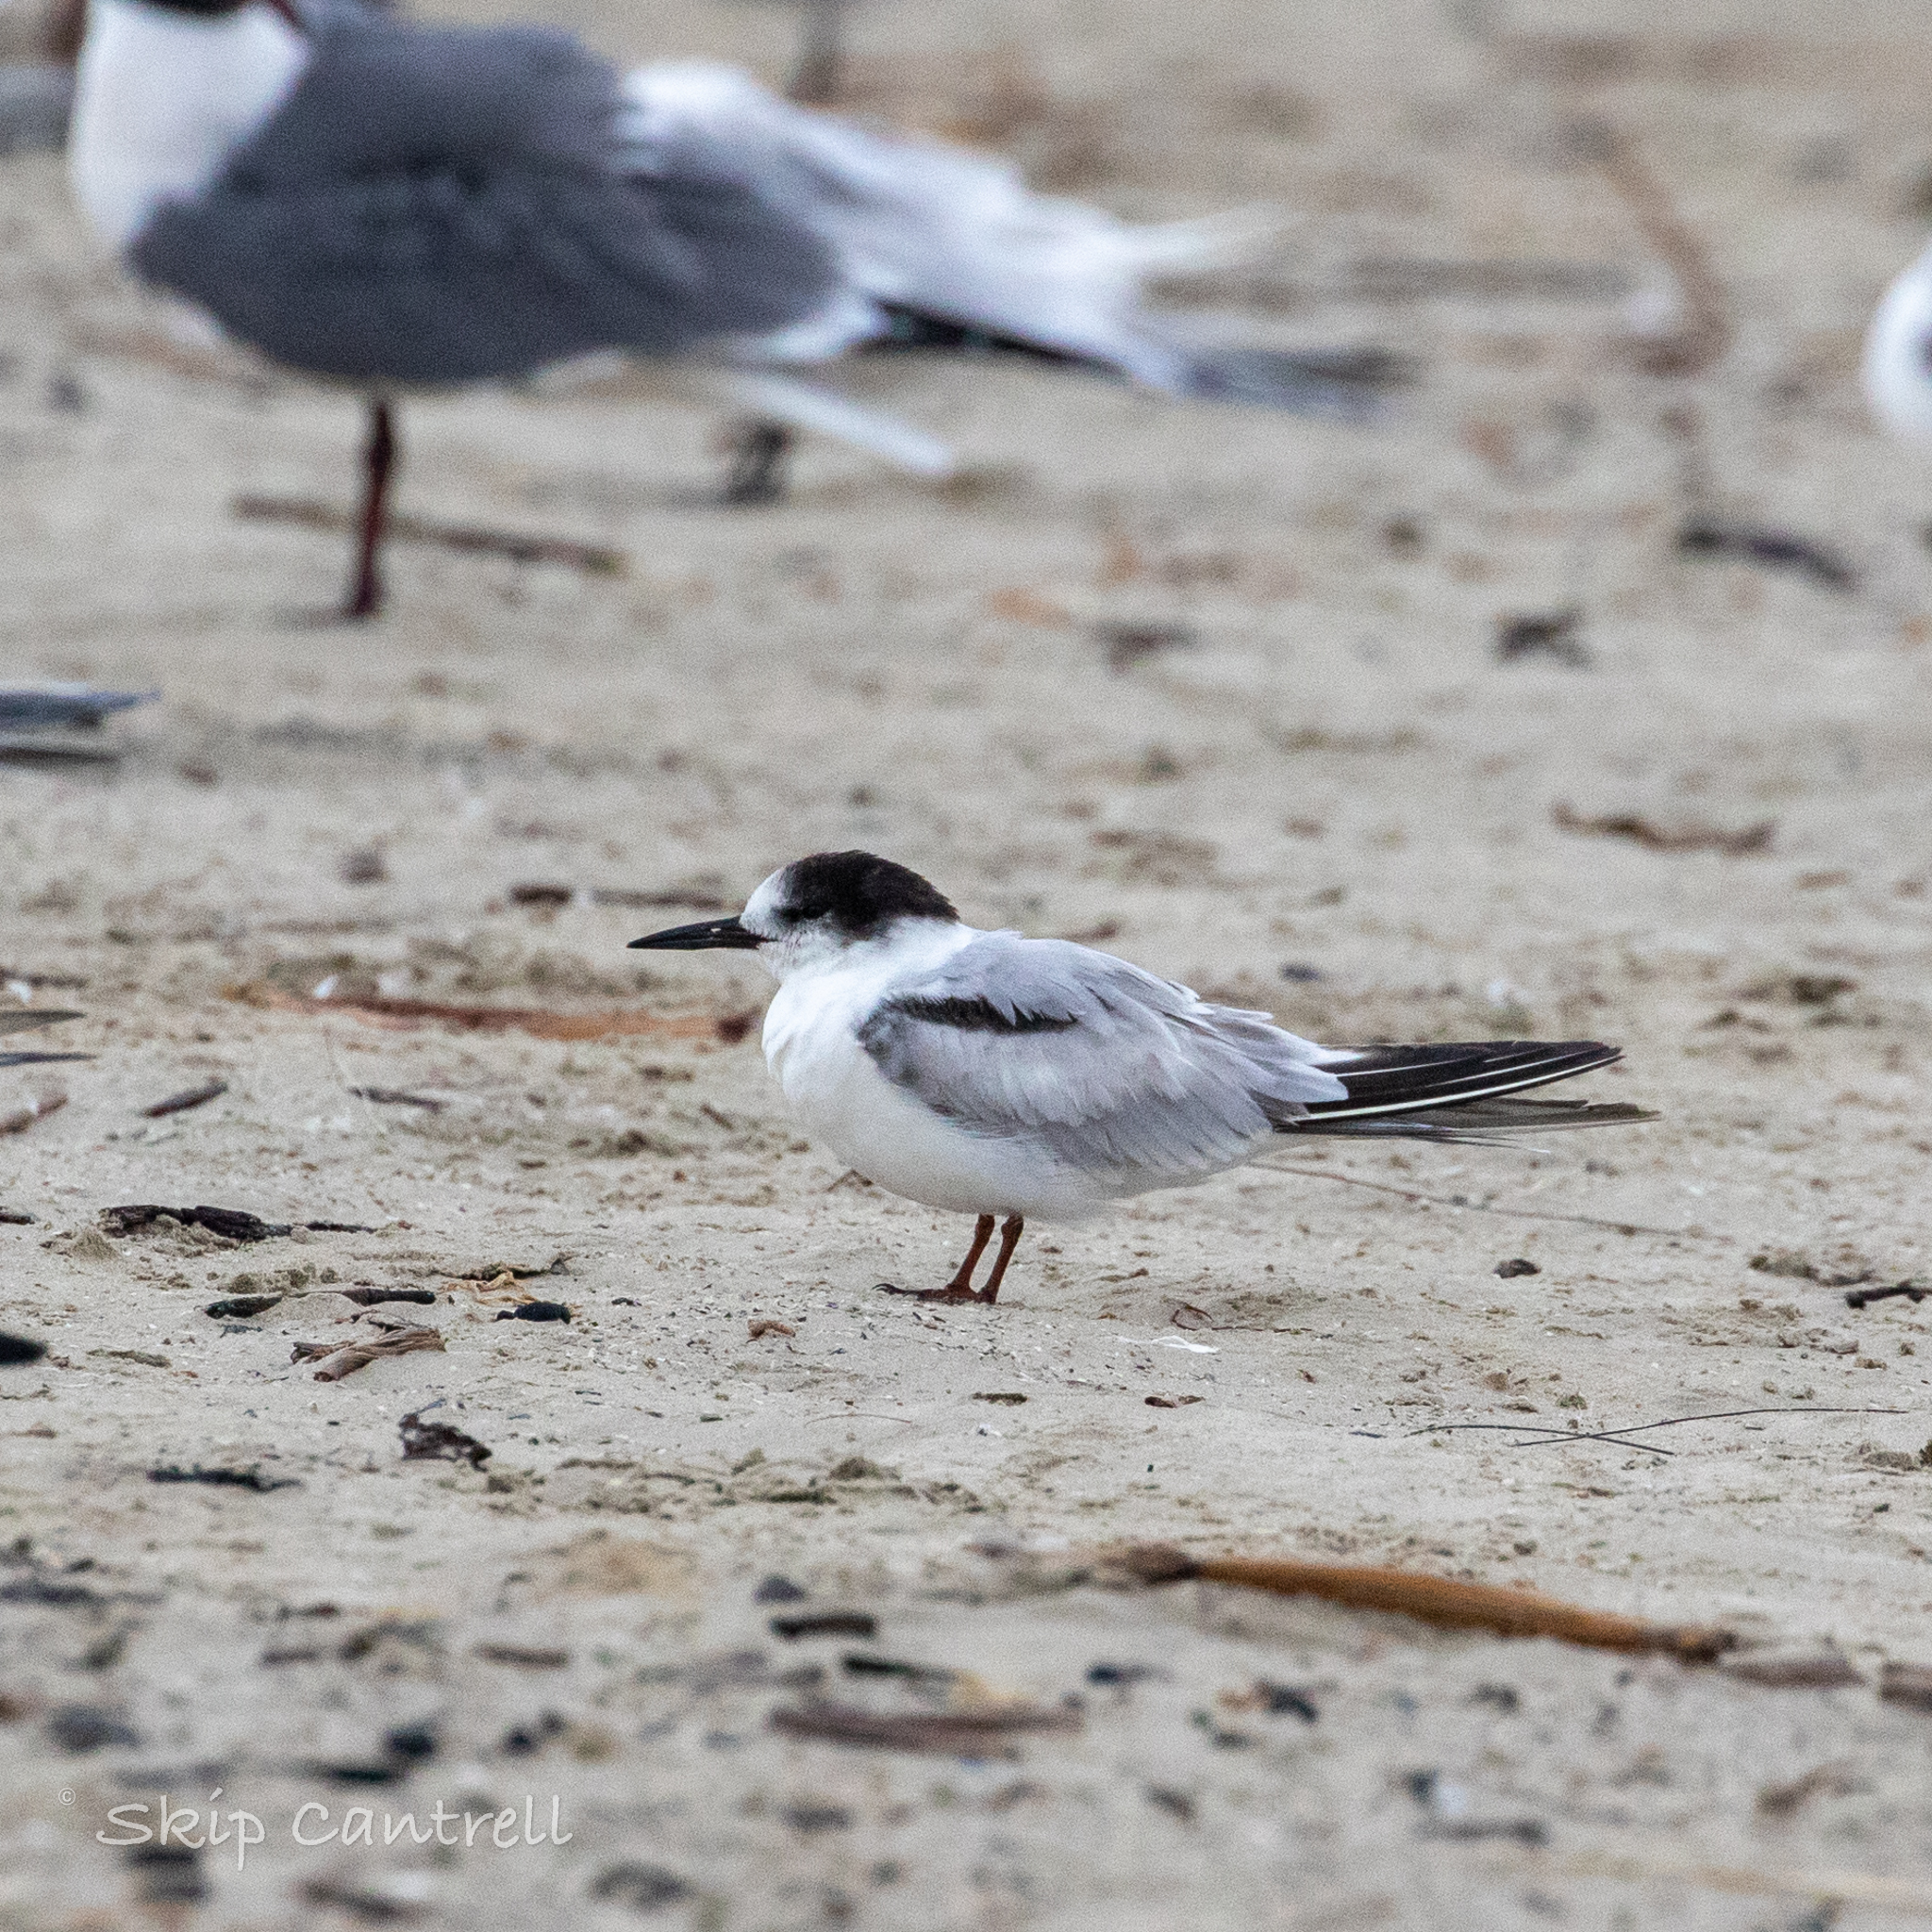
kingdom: Animalia
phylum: Chordata
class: Aves
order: Charadriiformes
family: Laridae
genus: Sterna
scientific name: Sterna hirundo
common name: Common tern
